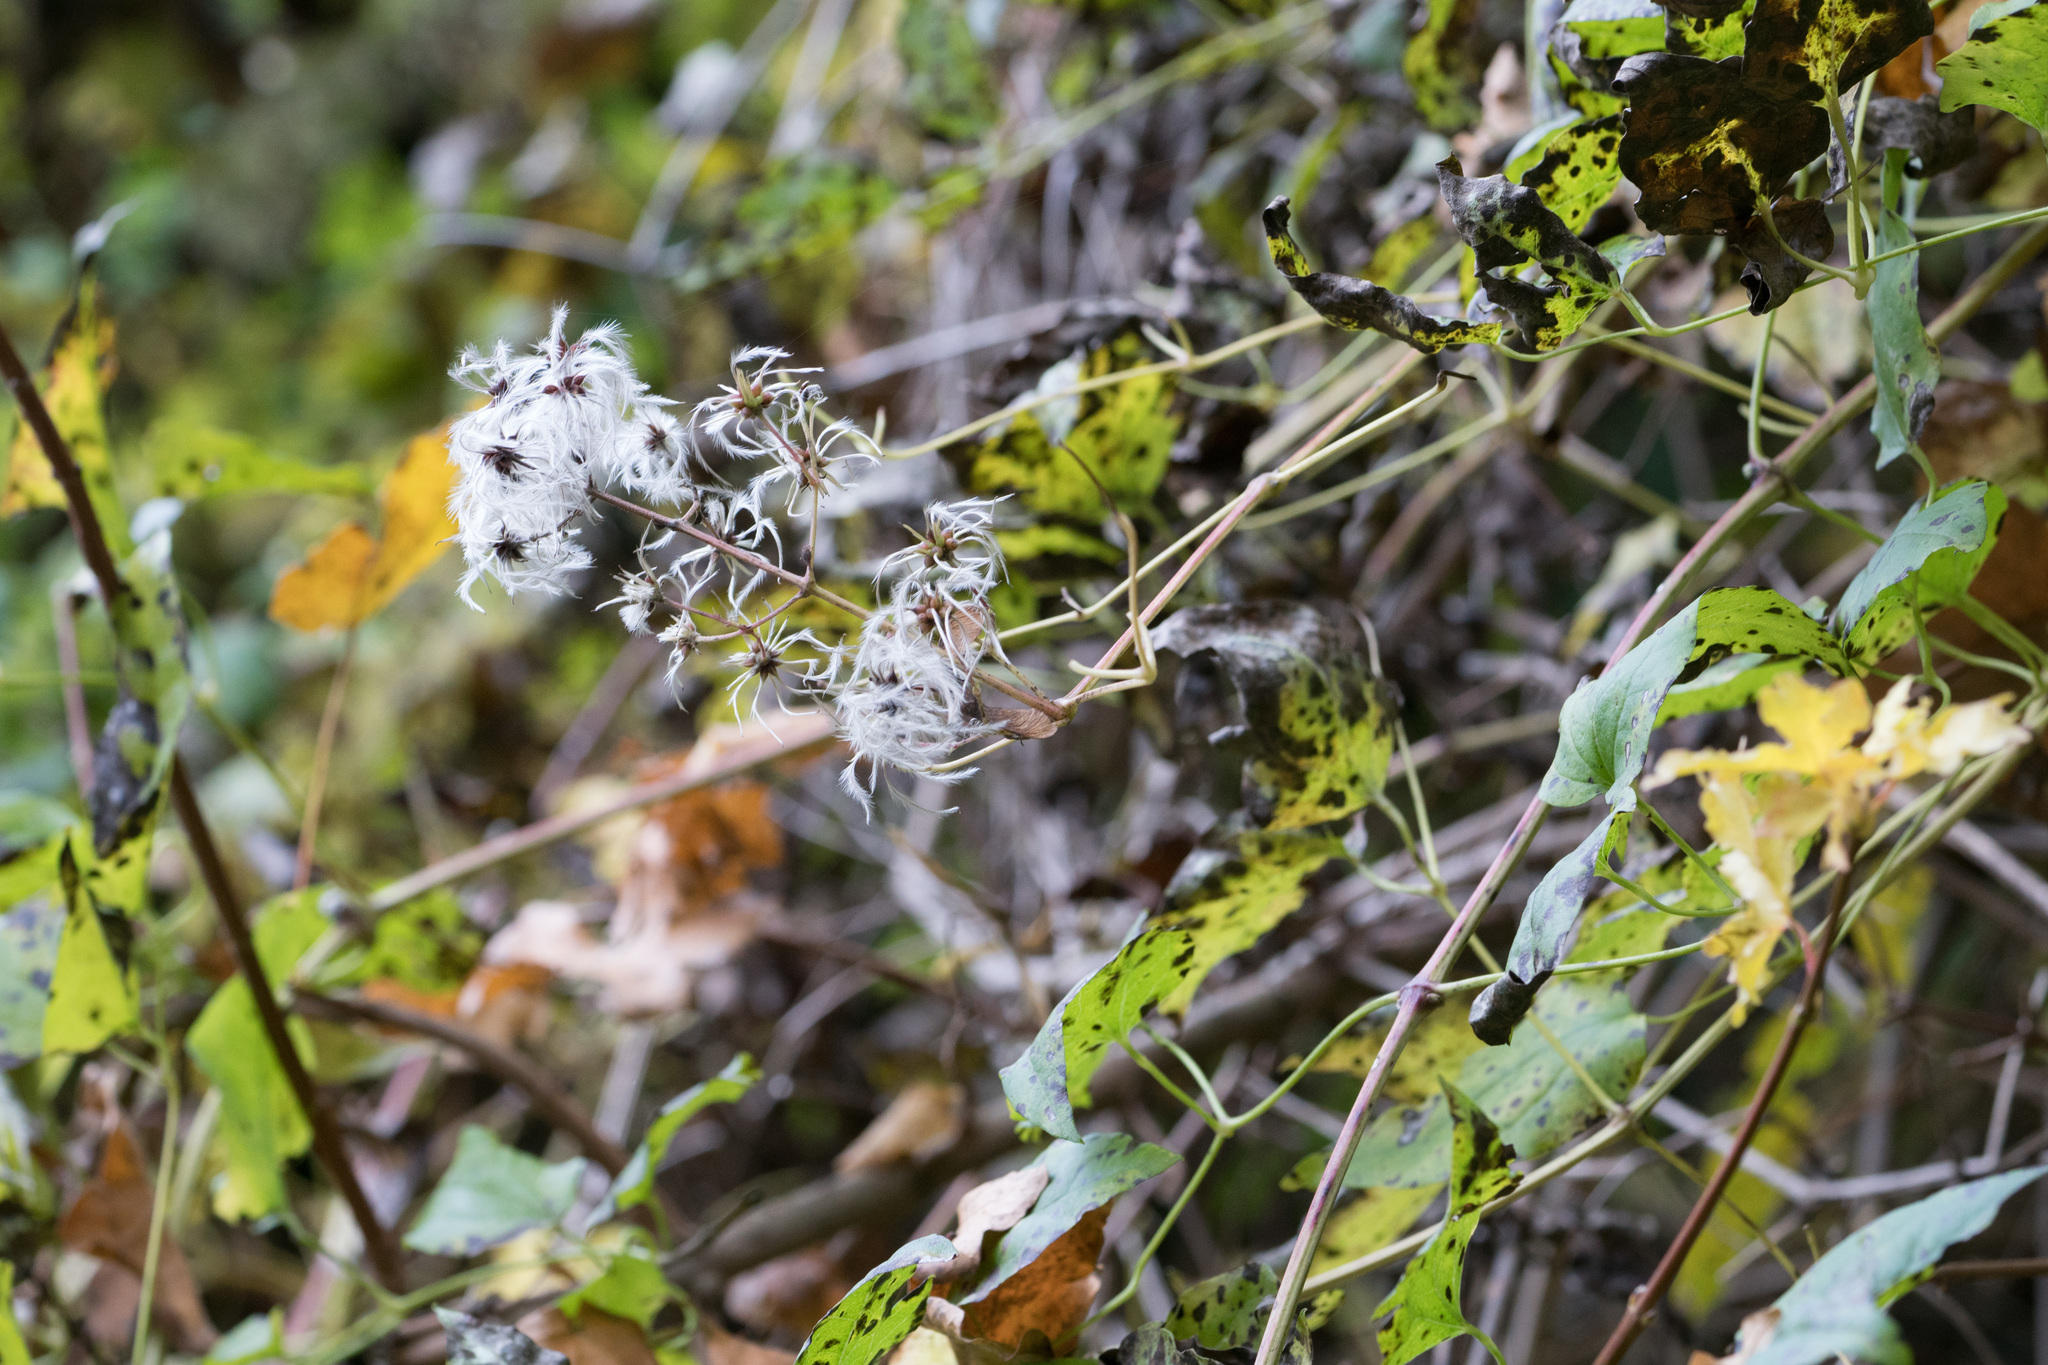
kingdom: Plantae
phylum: Tracheophyta
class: Magnoliopsida
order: Ranunculales
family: Ranunculaceae
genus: Clematis
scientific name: Clematis vitalba
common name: Evergreen clematis
